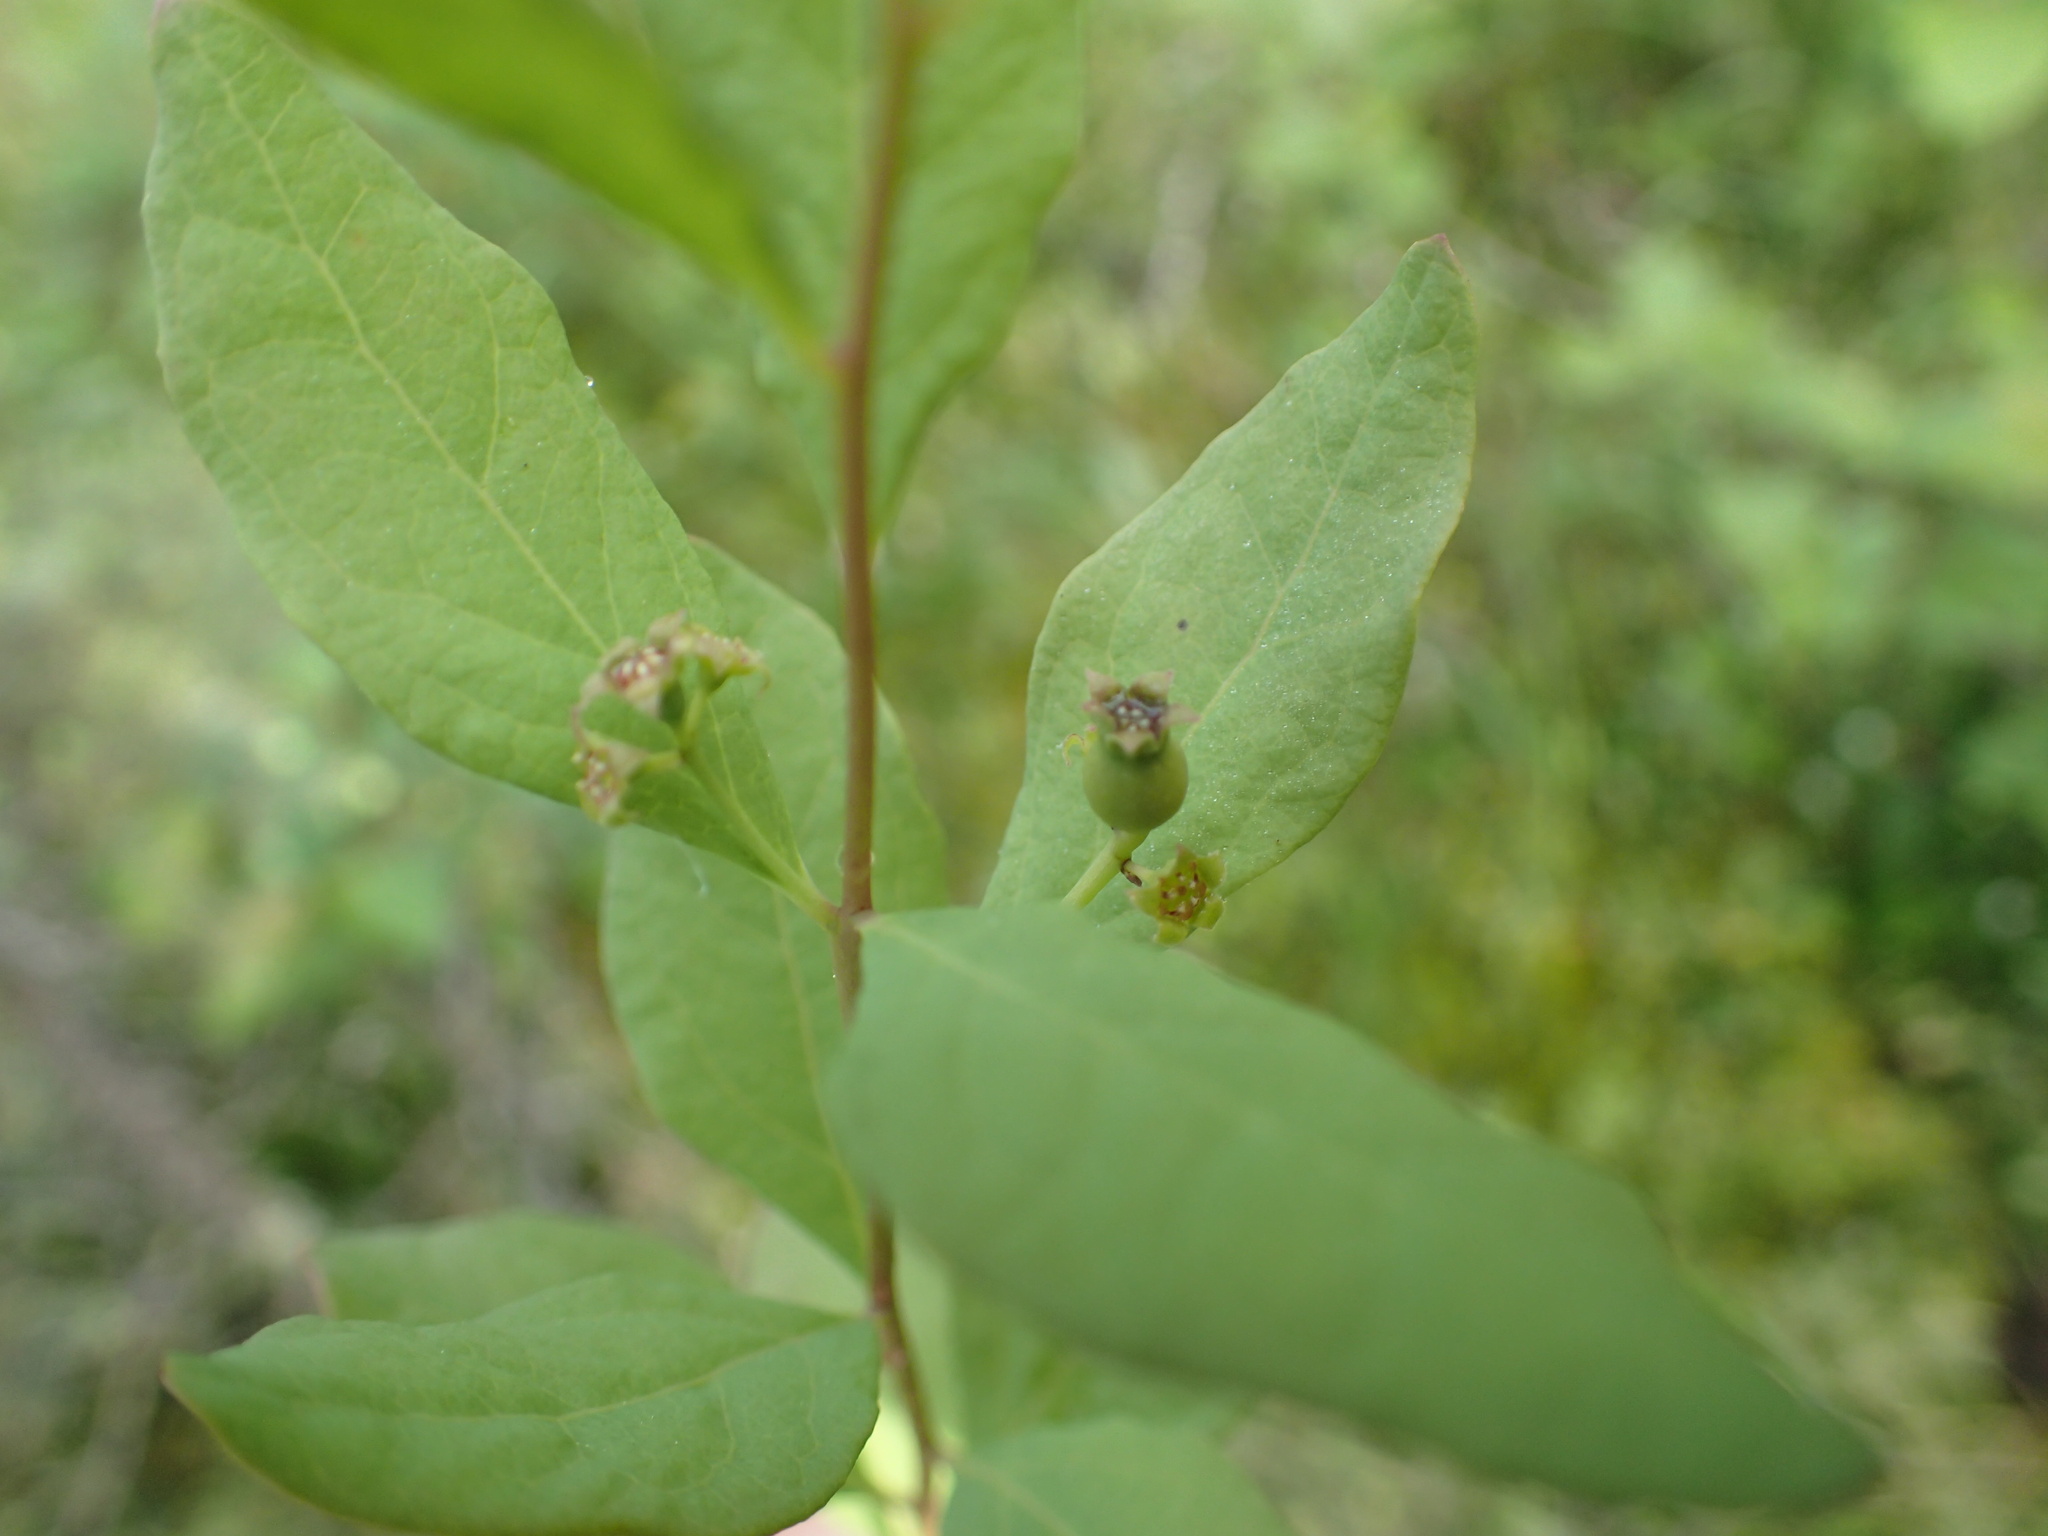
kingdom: Plantae
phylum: Tracheophyta
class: Magnoliopsida
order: Santalales
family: Comandraceae
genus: Geocaulon
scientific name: Geocaulon lividum
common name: Earthberry
